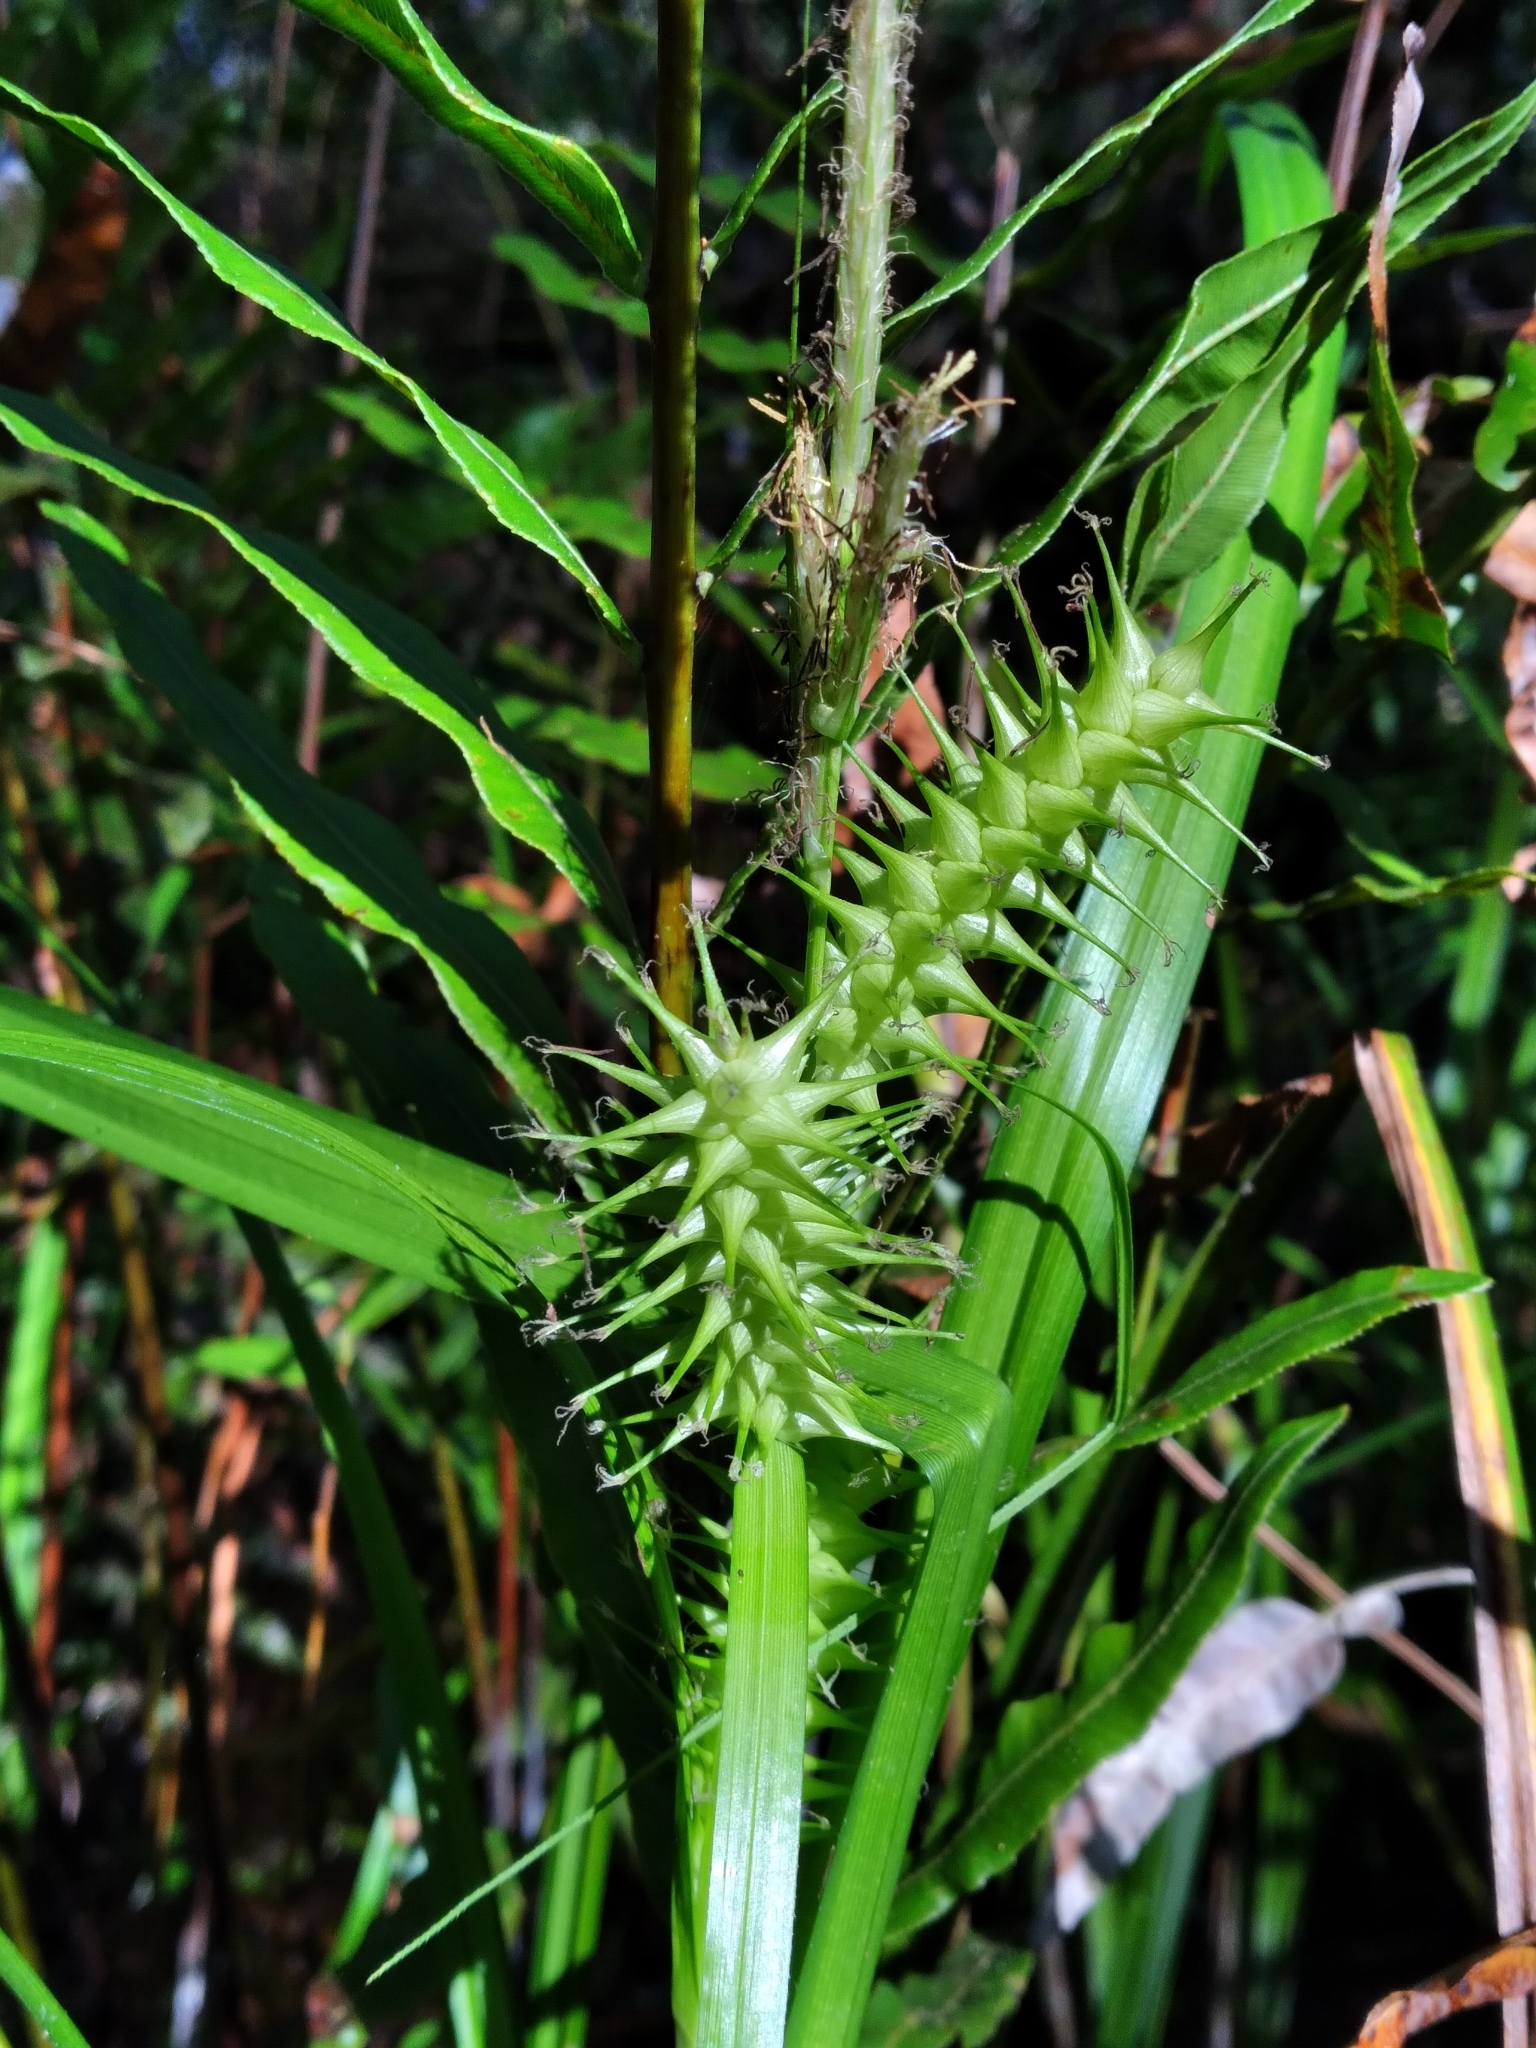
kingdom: Plantae
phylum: Tracheophyta
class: Liliopsida
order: Poales
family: Cyperaceae
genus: Carex
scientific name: Carex gigantea
